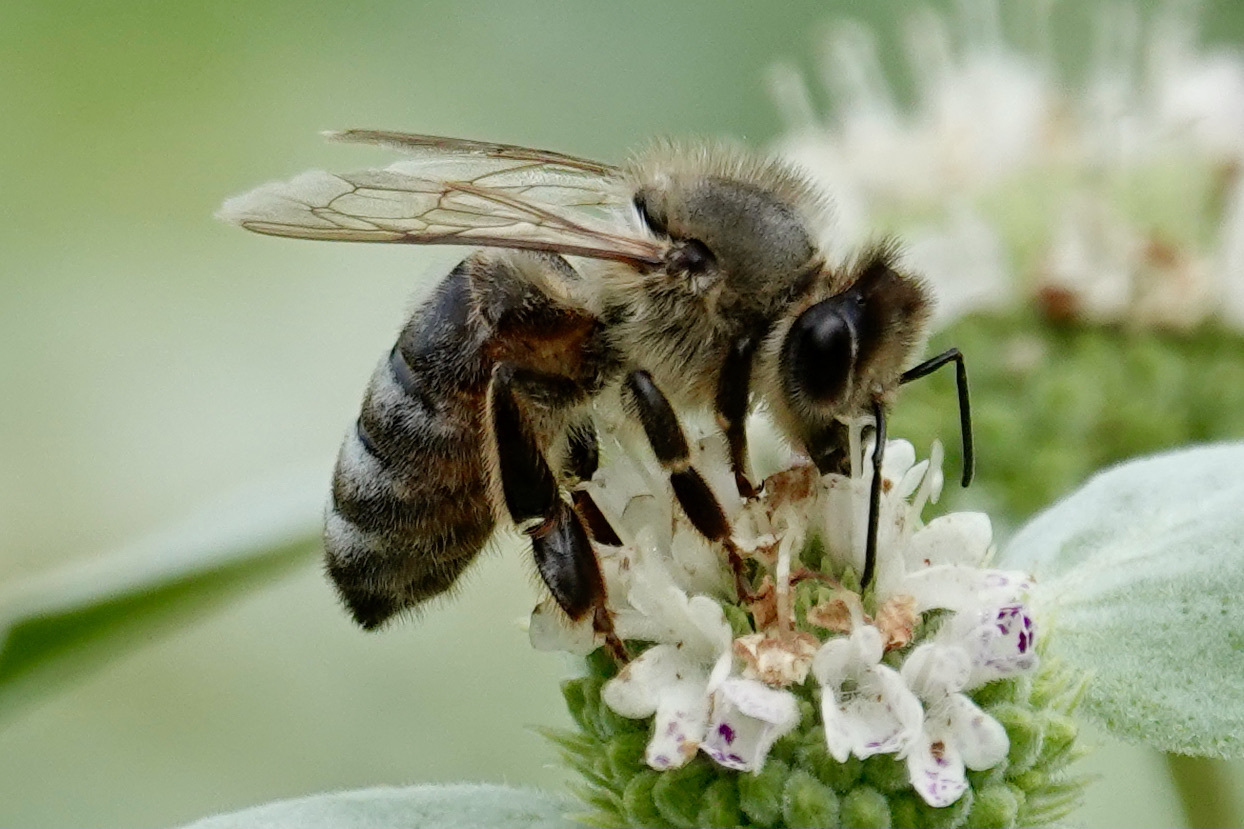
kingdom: Animalia
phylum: Arthropoda
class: Insecta
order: Hymenoptera
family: Apidae
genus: Apis
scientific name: Apis mellifera
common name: Honey bee
